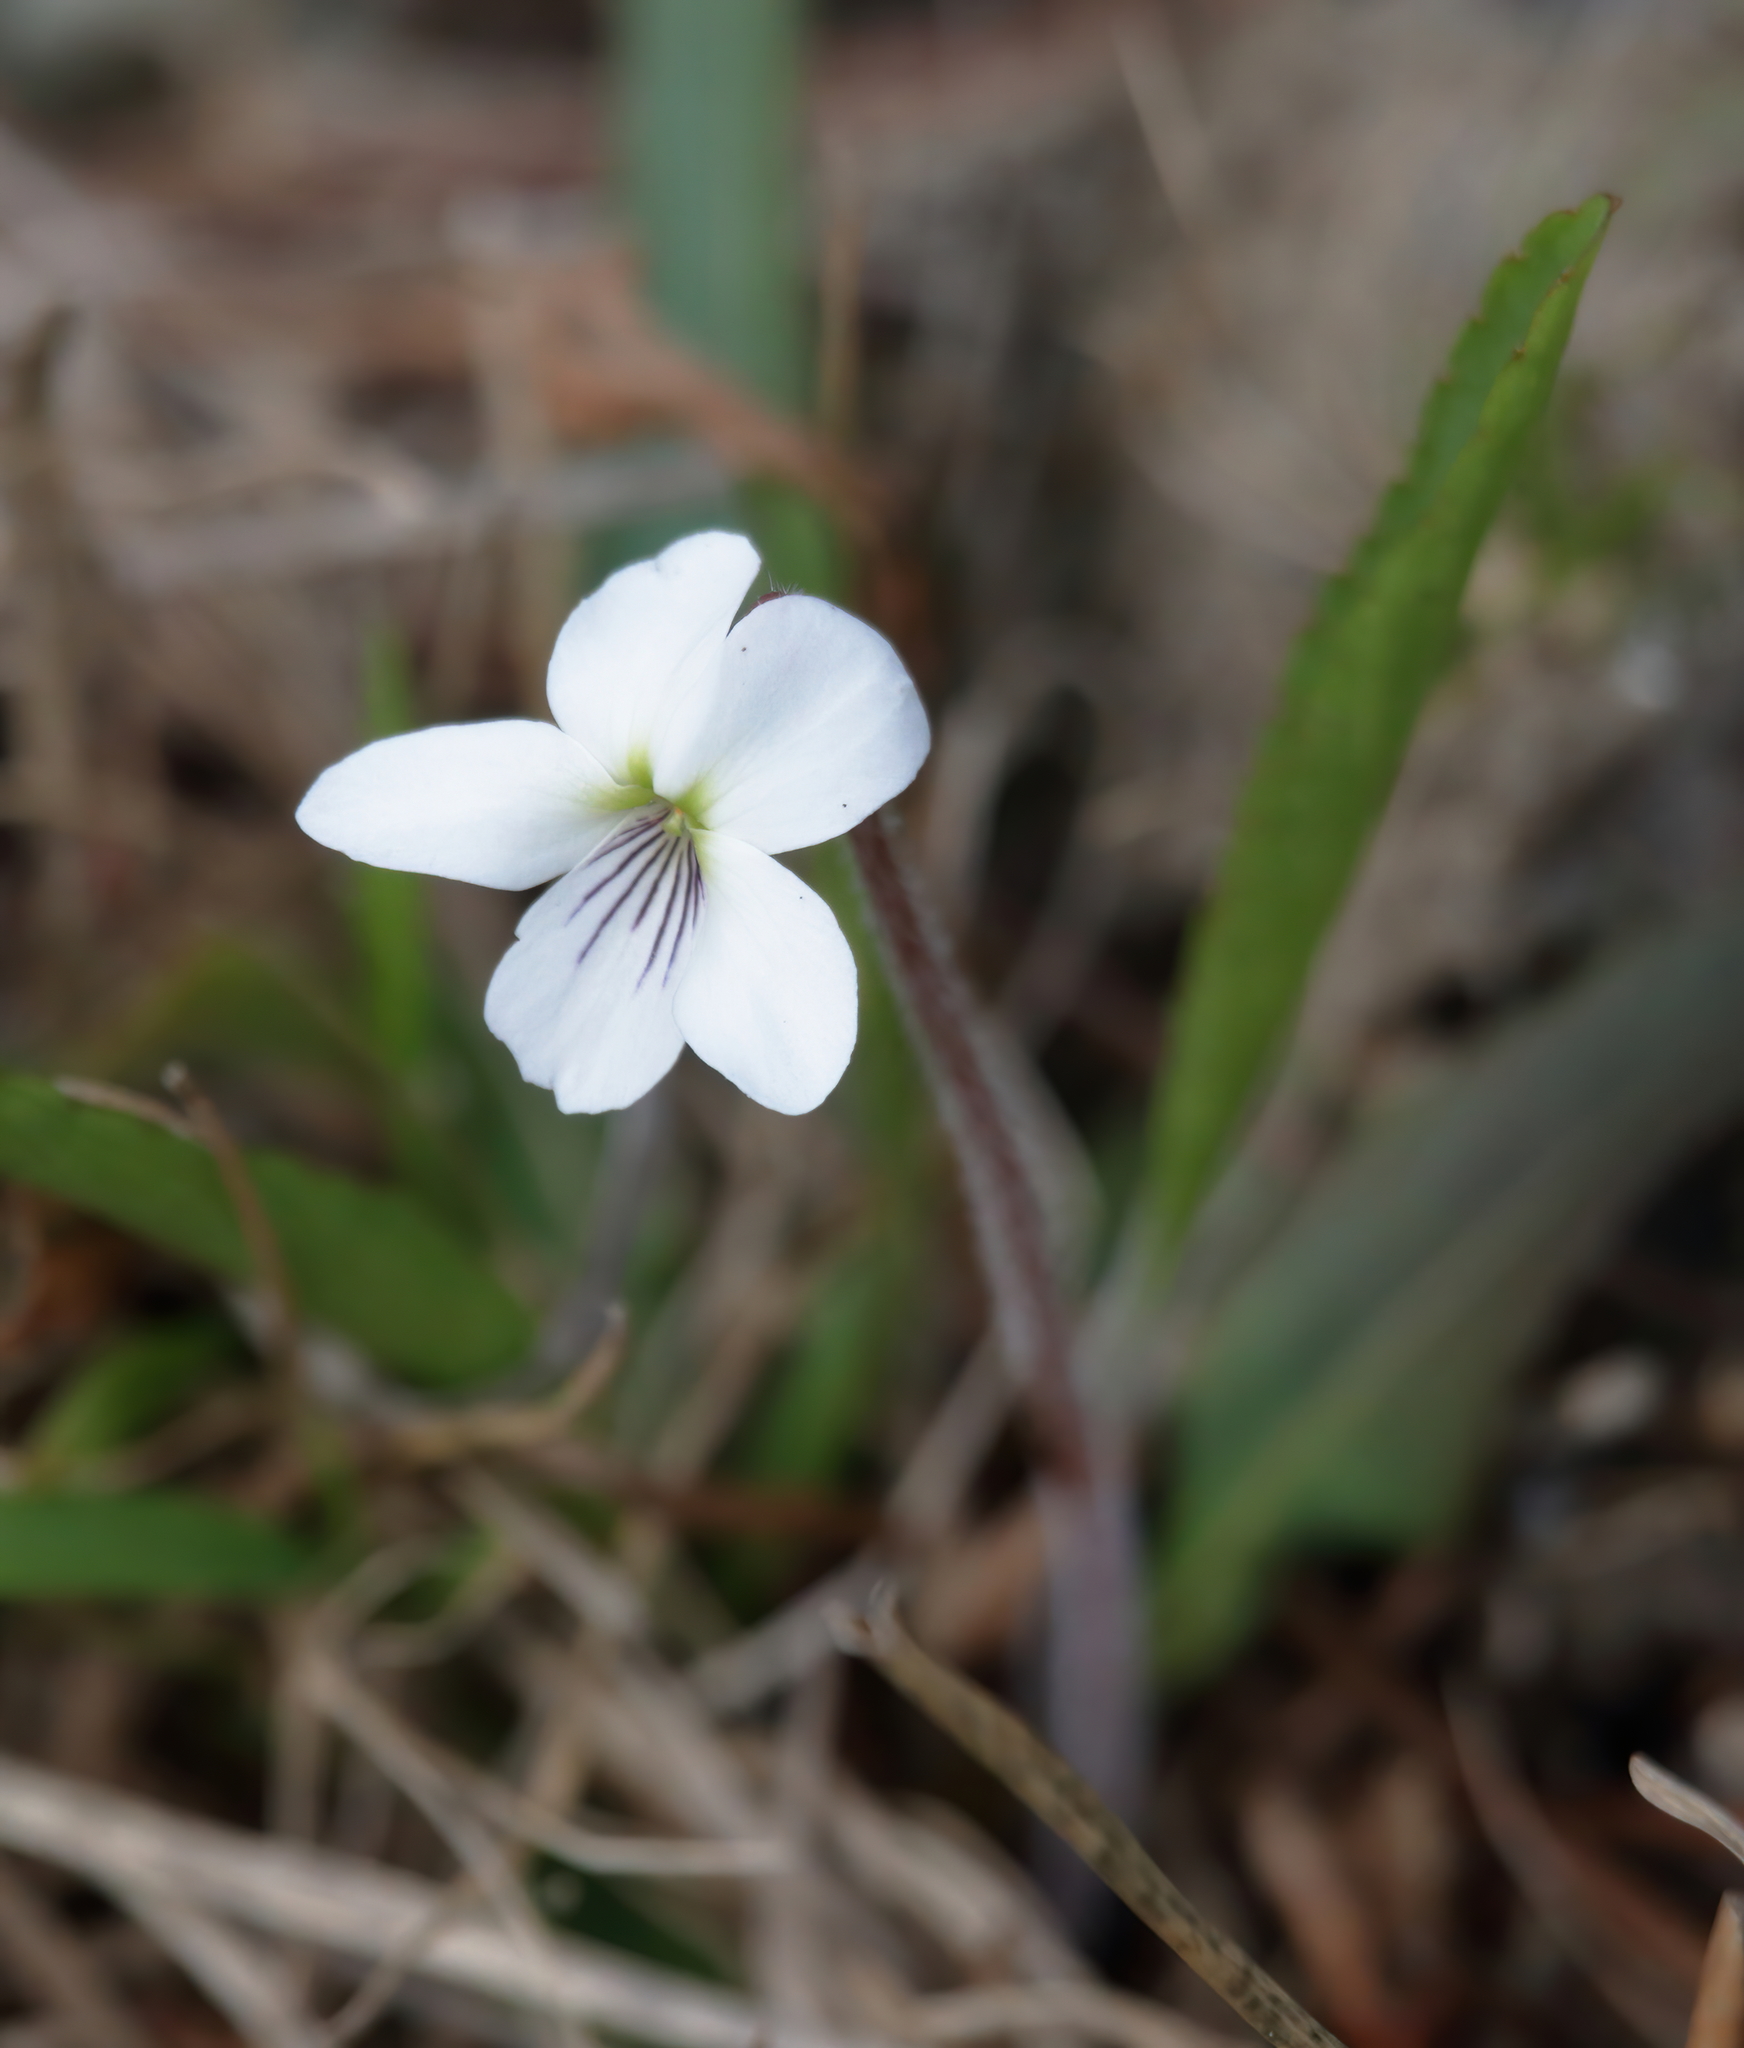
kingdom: Plantae
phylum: Tracheophyta
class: Magnoliopsida
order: Malpighiales
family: Violaceae
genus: Viola
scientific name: Viola lanceolata
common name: Bog white violet
